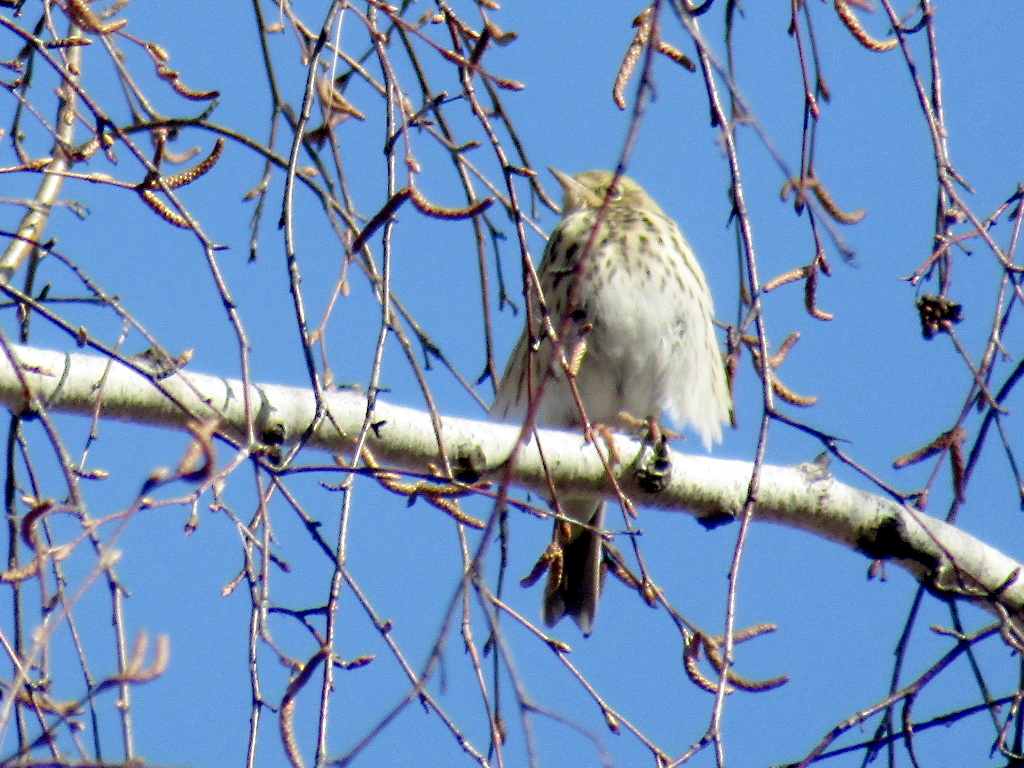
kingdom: Animalia
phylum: Chordata
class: Aves
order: Passeriformes
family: Motacillidae
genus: Anthus
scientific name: Anthus trivialis
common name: Tree pipit
